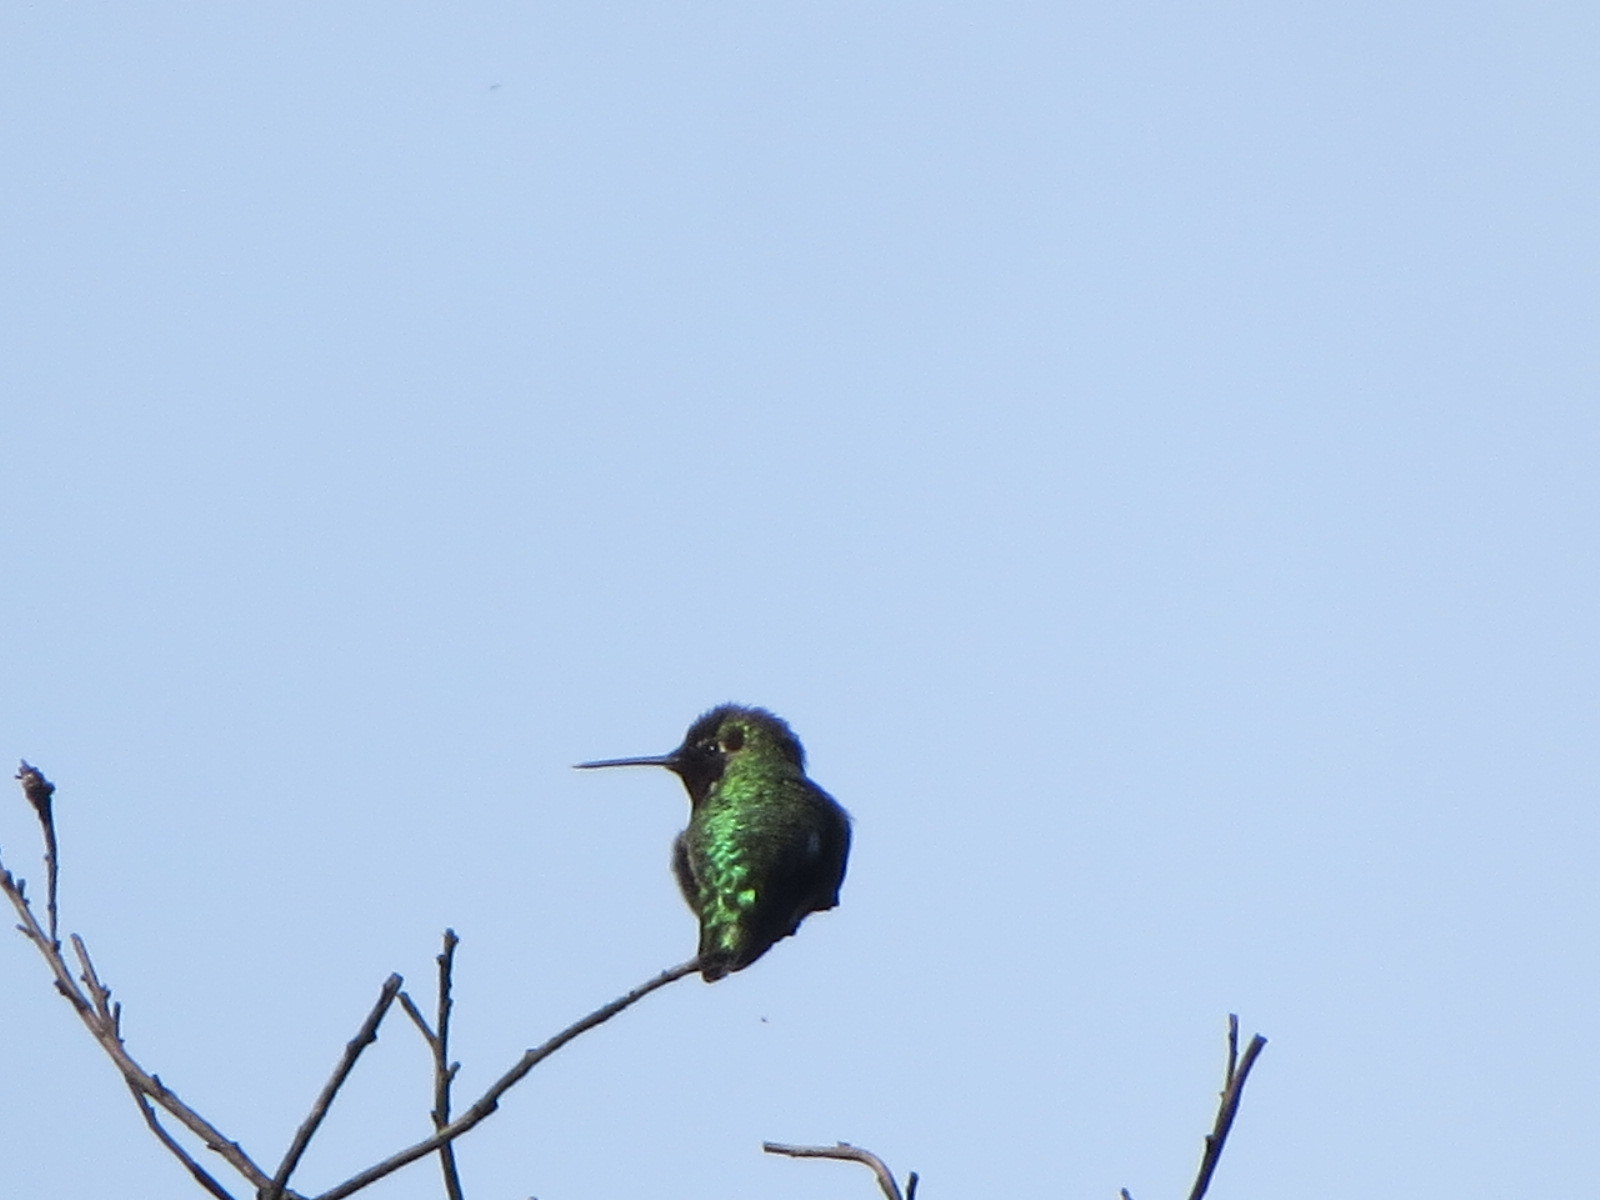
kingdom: Animalia
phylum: Chordata
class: Aves
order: Apodiformes
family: Trochilidae
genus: Calypte
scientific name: Calypte anna
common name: Anna's hummingbird
